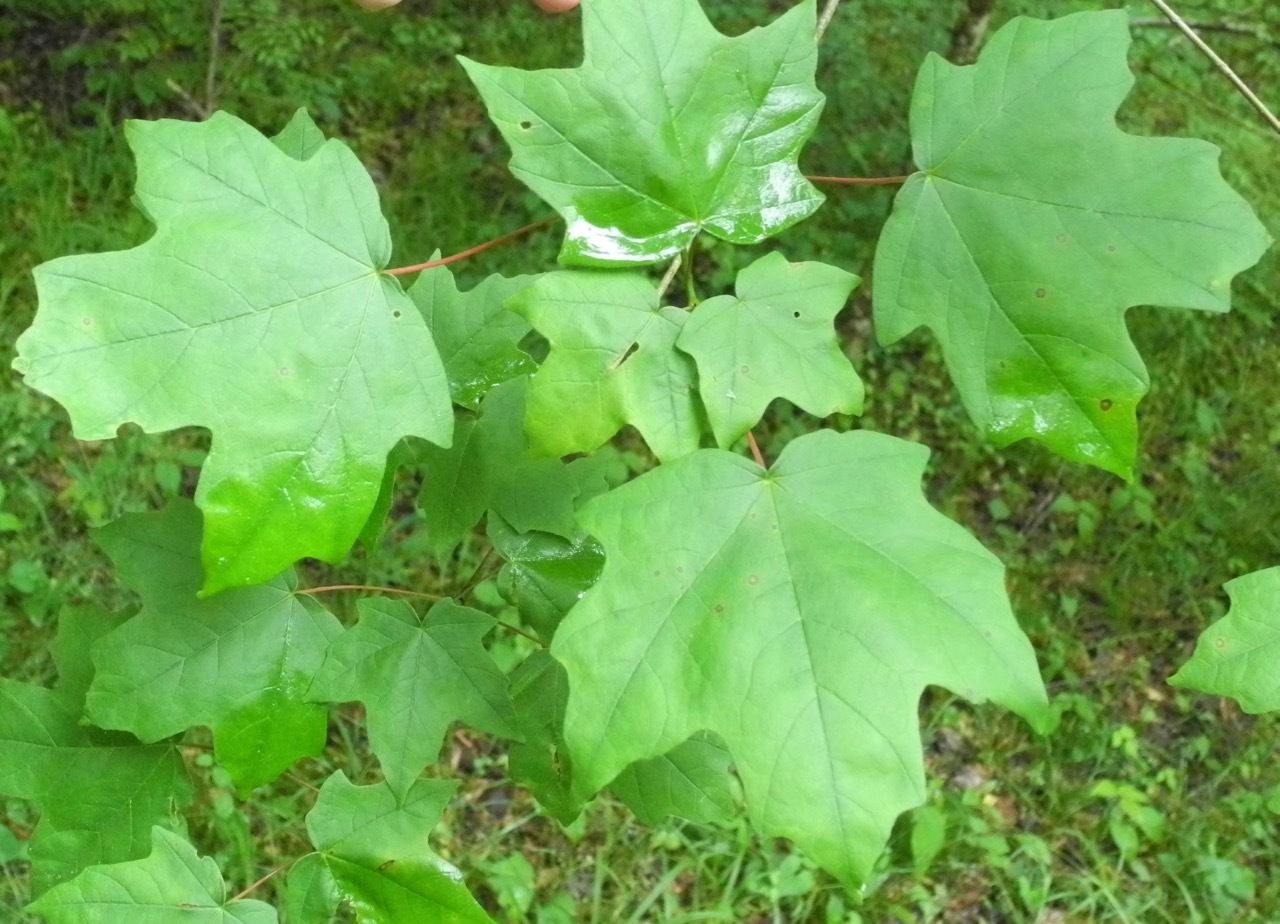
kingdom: Plantae
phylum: Tracheophyta
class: Magnoliopsida
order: Sapindales
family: Sapindaceae
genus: Acer
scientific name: Acer floridanum
